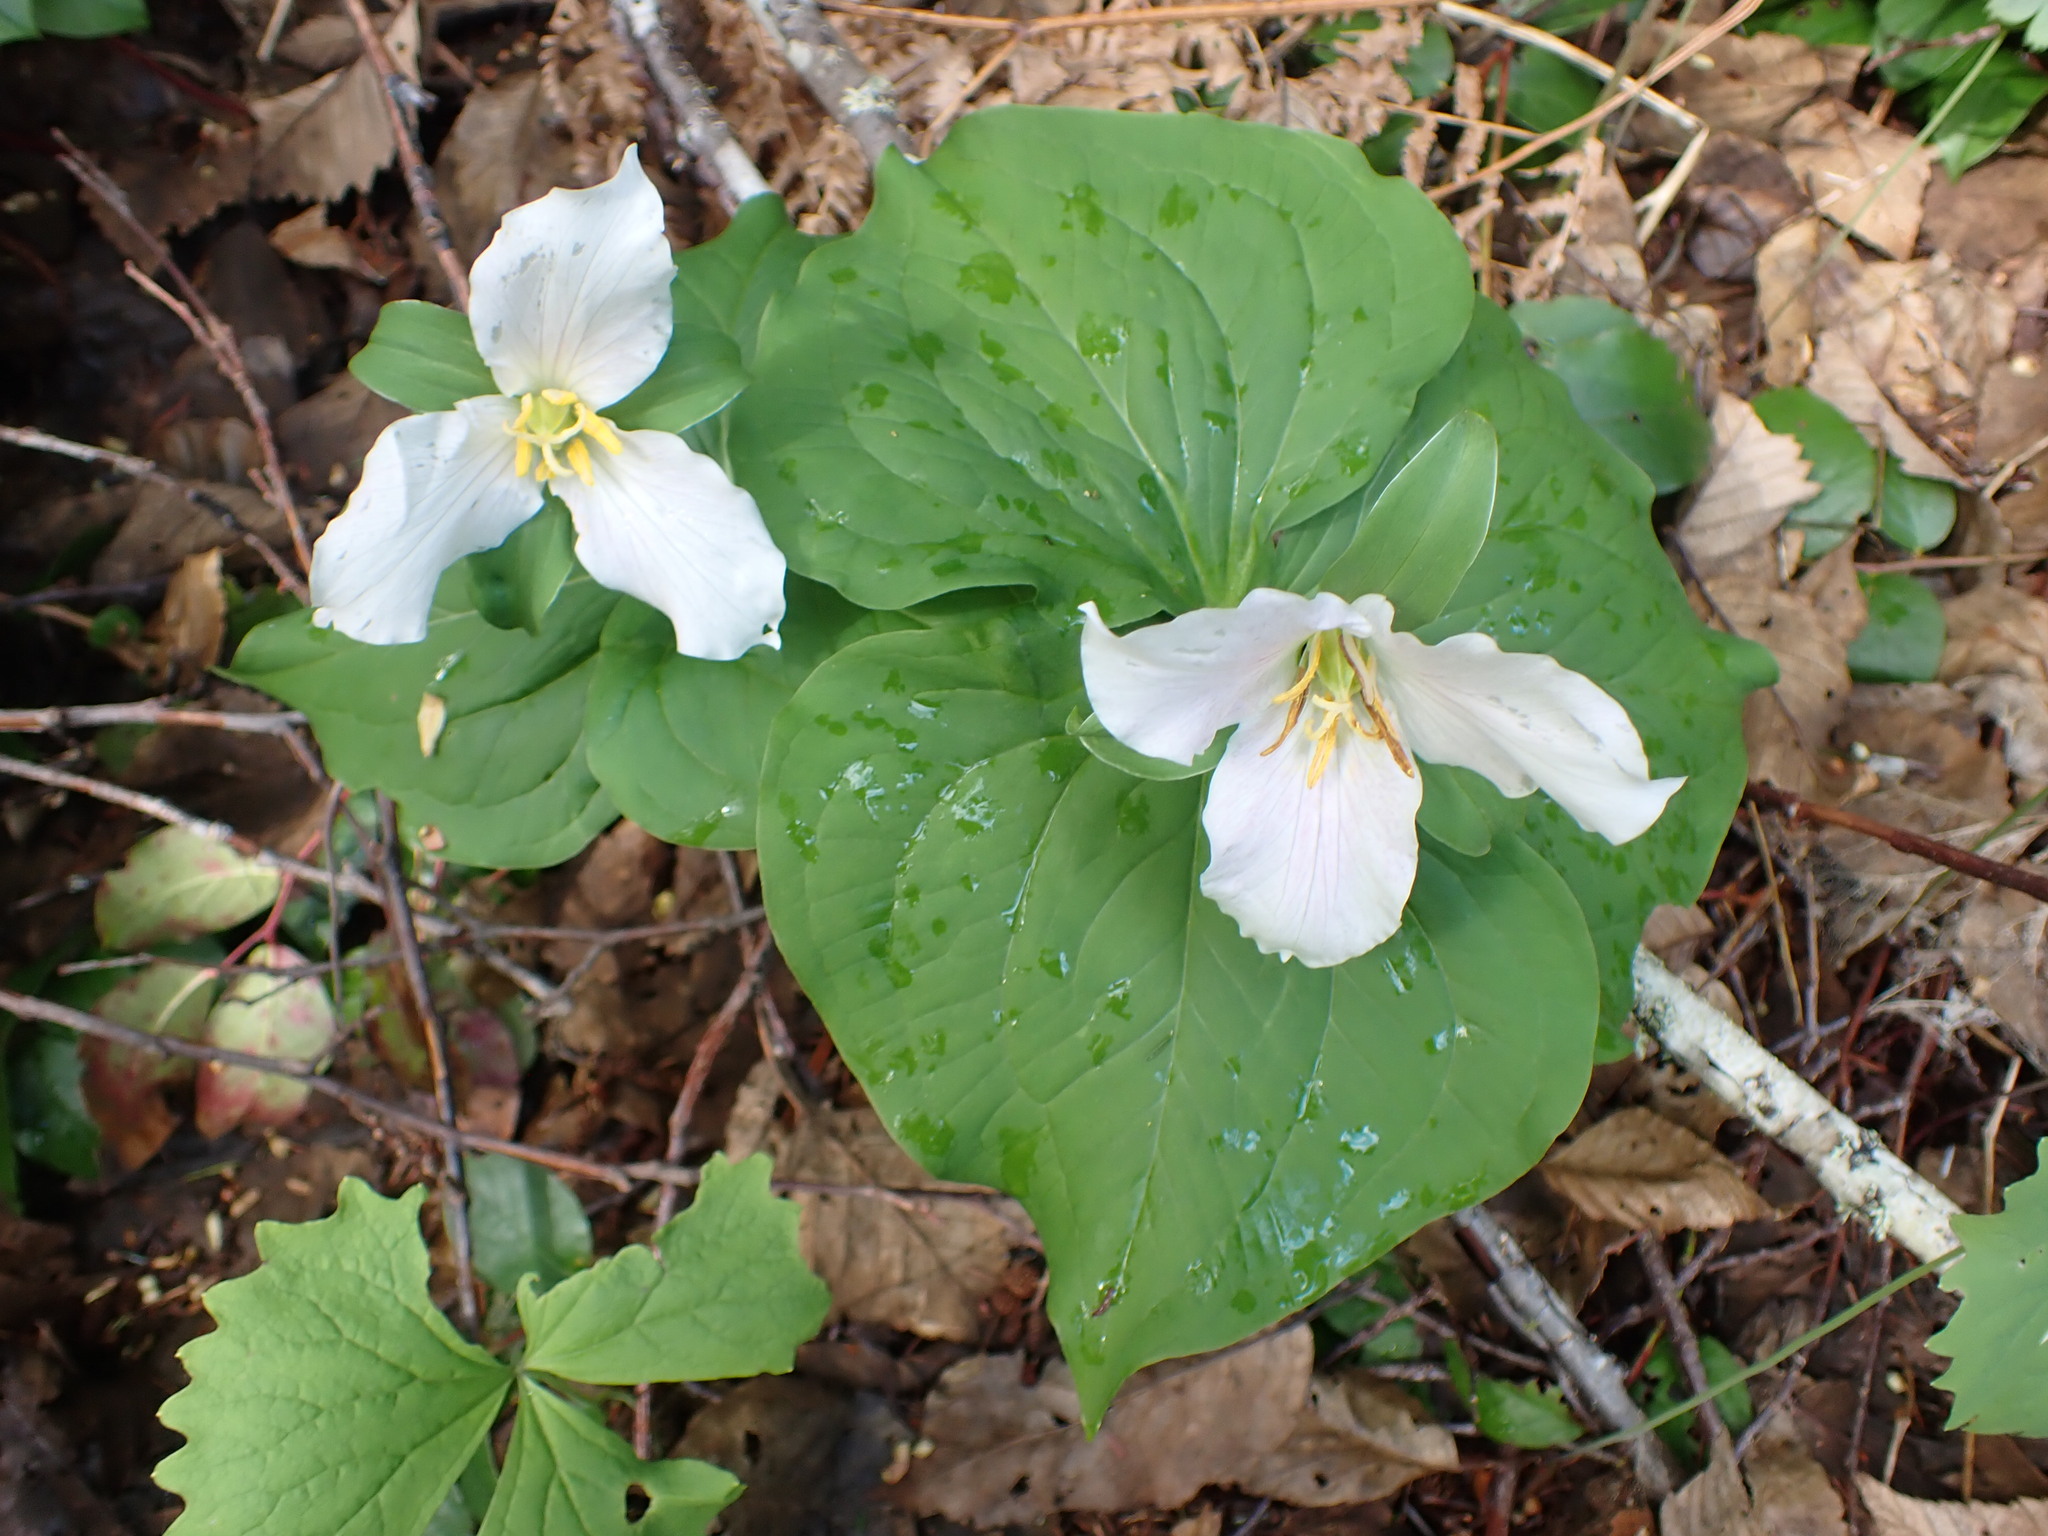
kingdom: Plantae
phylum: Tracheophyta
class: Liliopsida
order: Liliales
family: Melanthiaceae
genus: Trillium
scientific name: Trillium ovatum
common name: Pacific trillium
